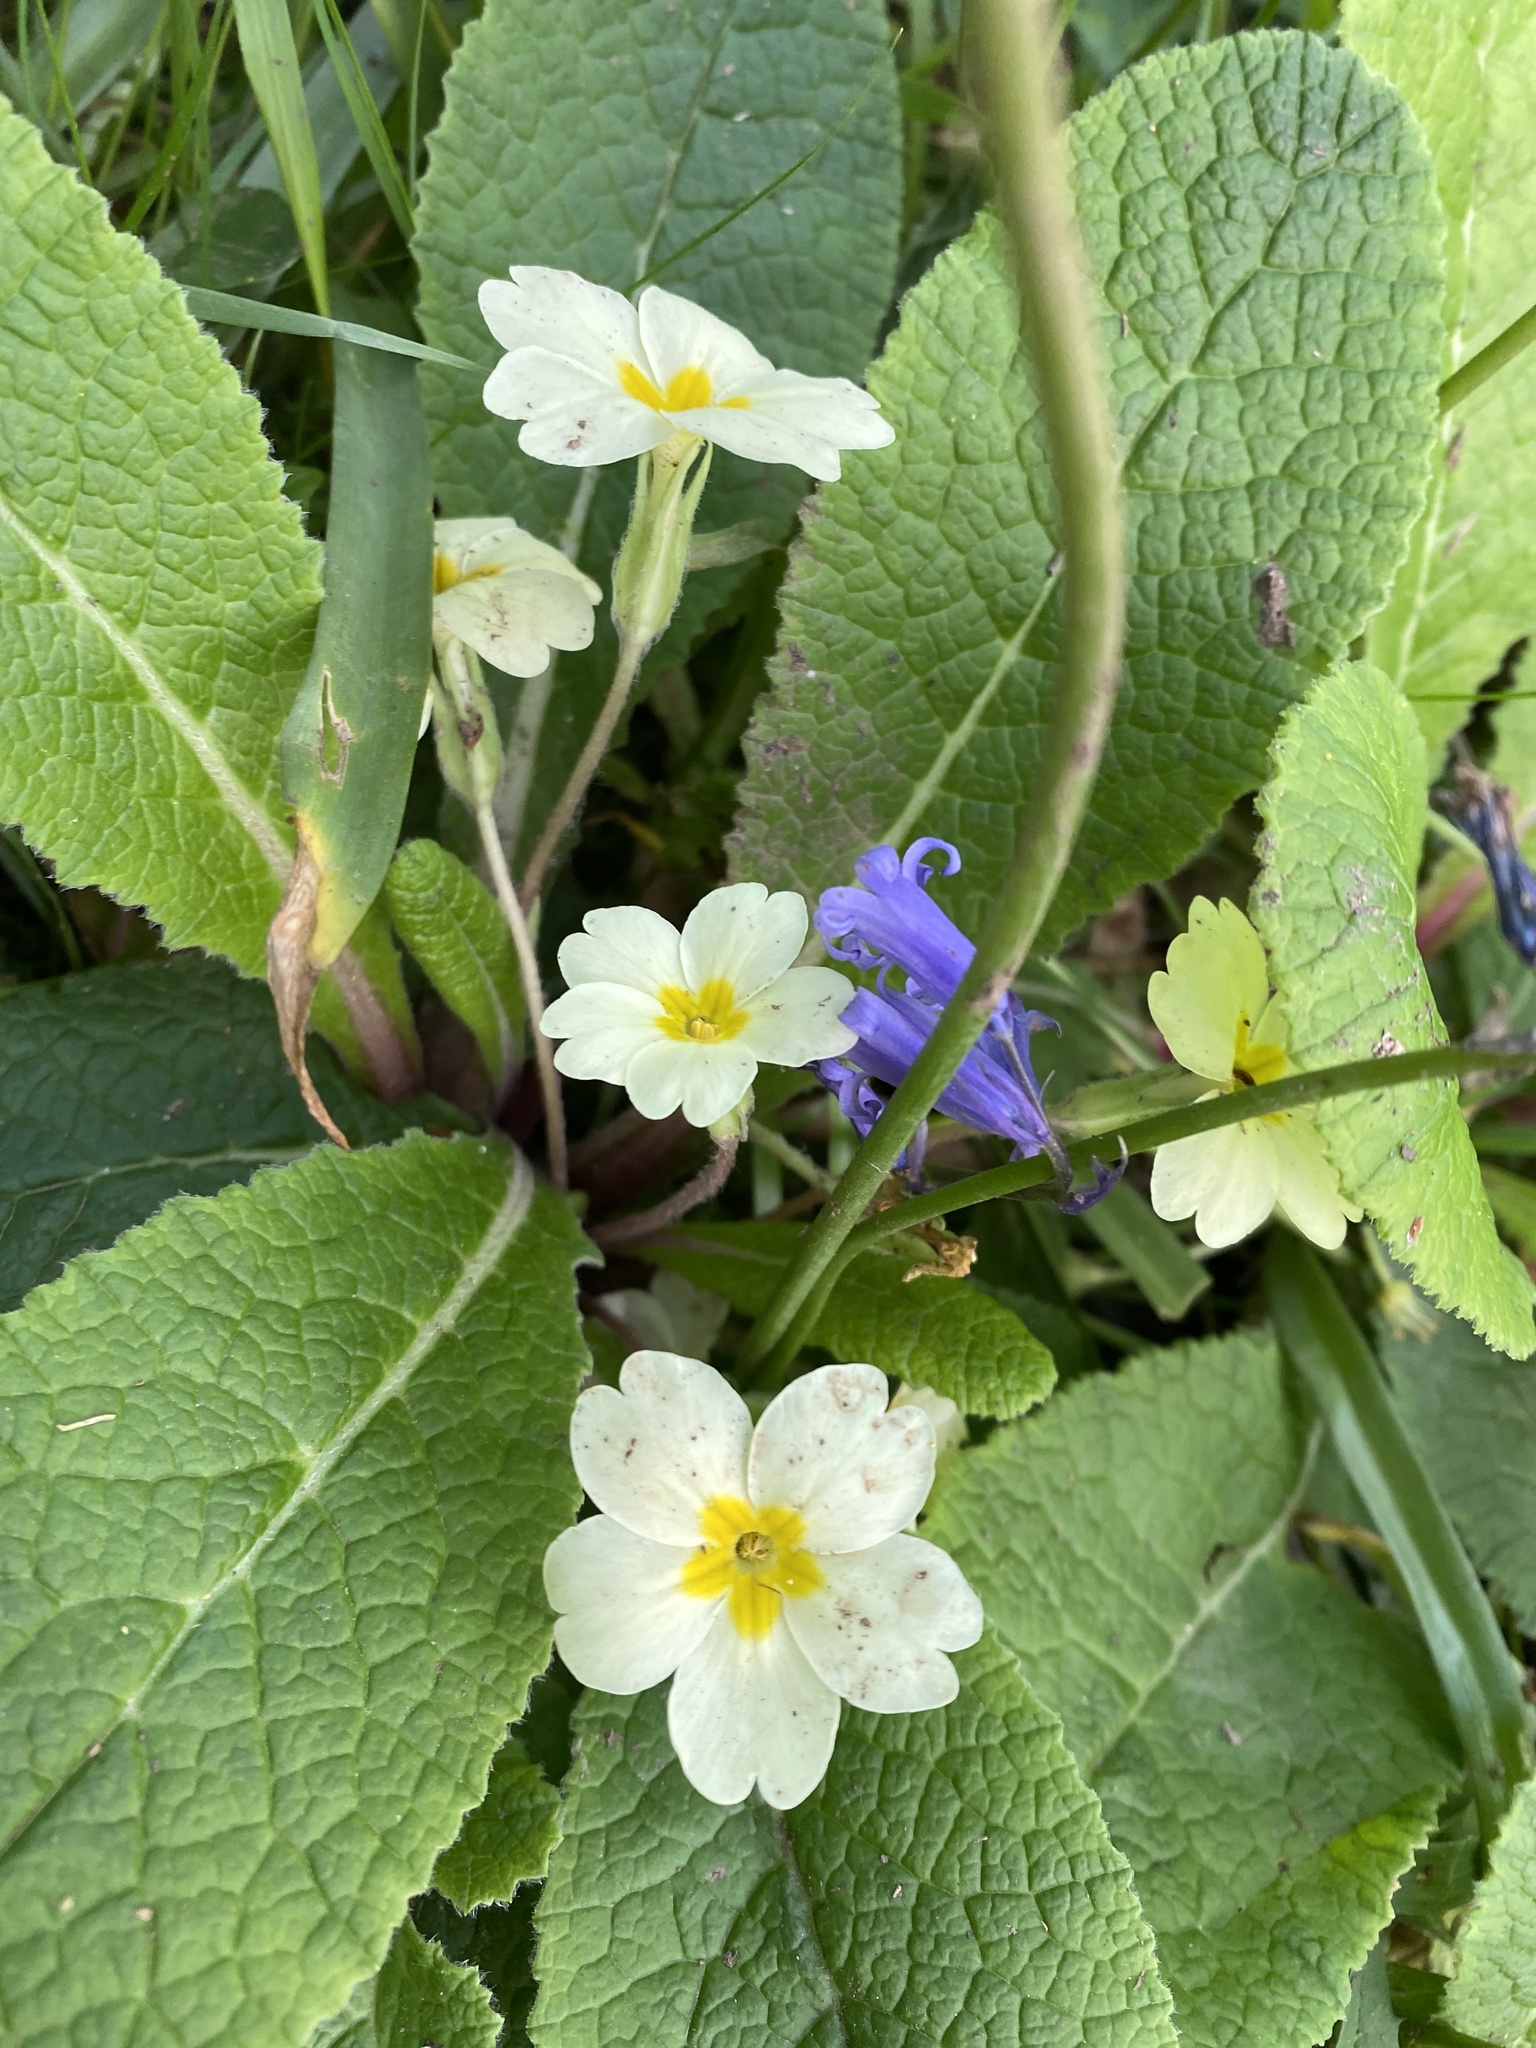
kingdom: Plantae
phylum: Tracheophyta
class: Magnoliopsida
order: Ericales
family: Primulaceae
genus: Primula
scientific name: Primula vulgaris
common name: Primrose
